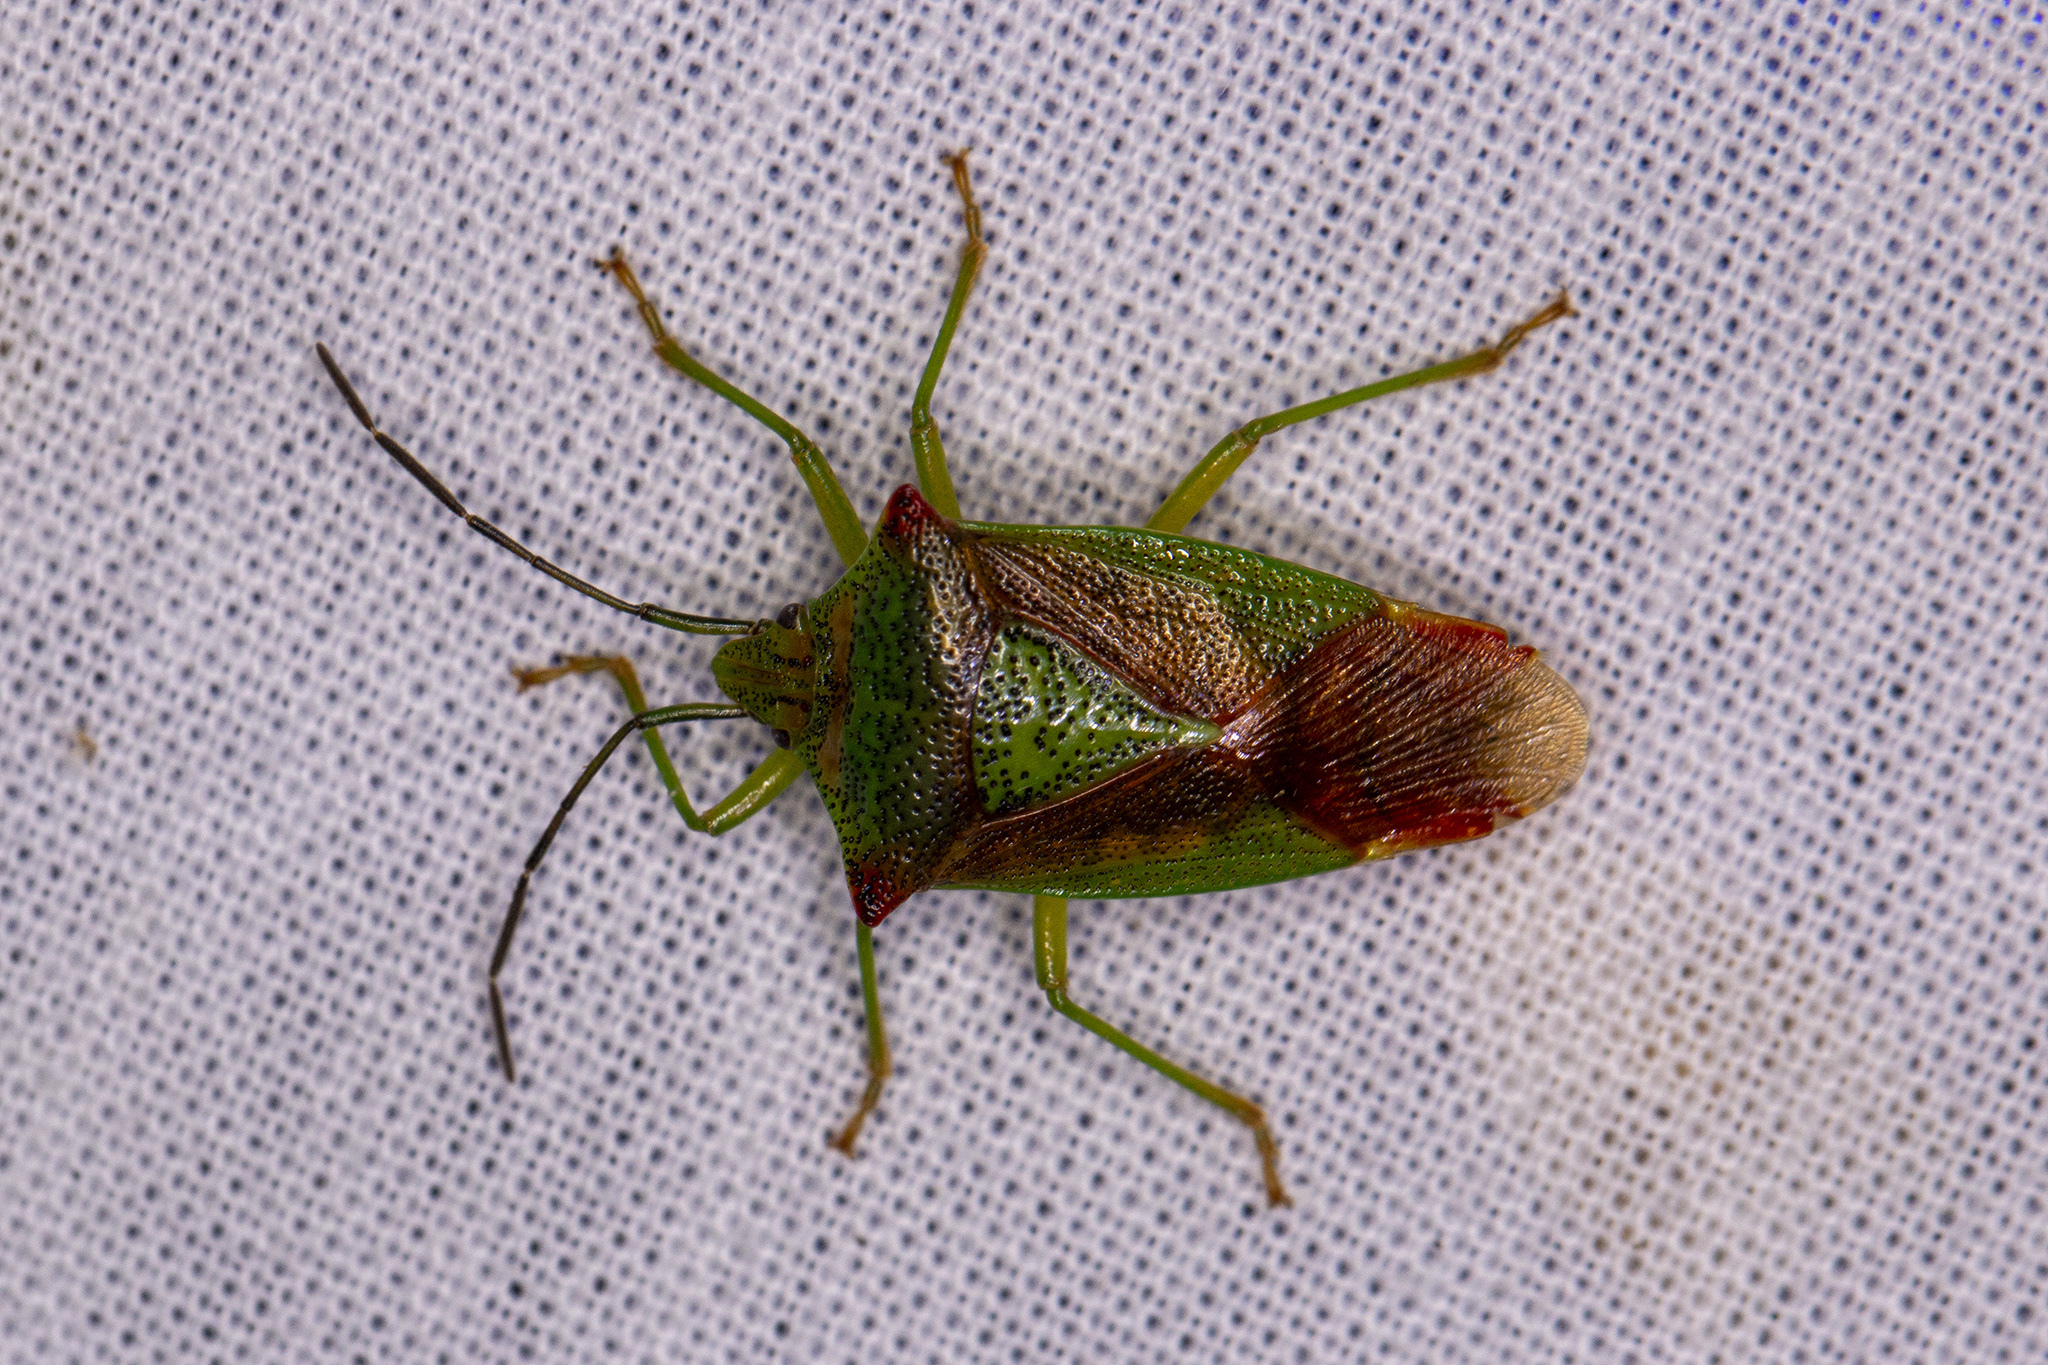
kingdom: Animalia
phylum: Arthropoda
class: Insecta
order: Hemiptera
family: Acanthosomatidae
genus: Acanthosoma
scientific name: Acanthosoma haemorrhoidale
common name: Hawthorn shieldbug
